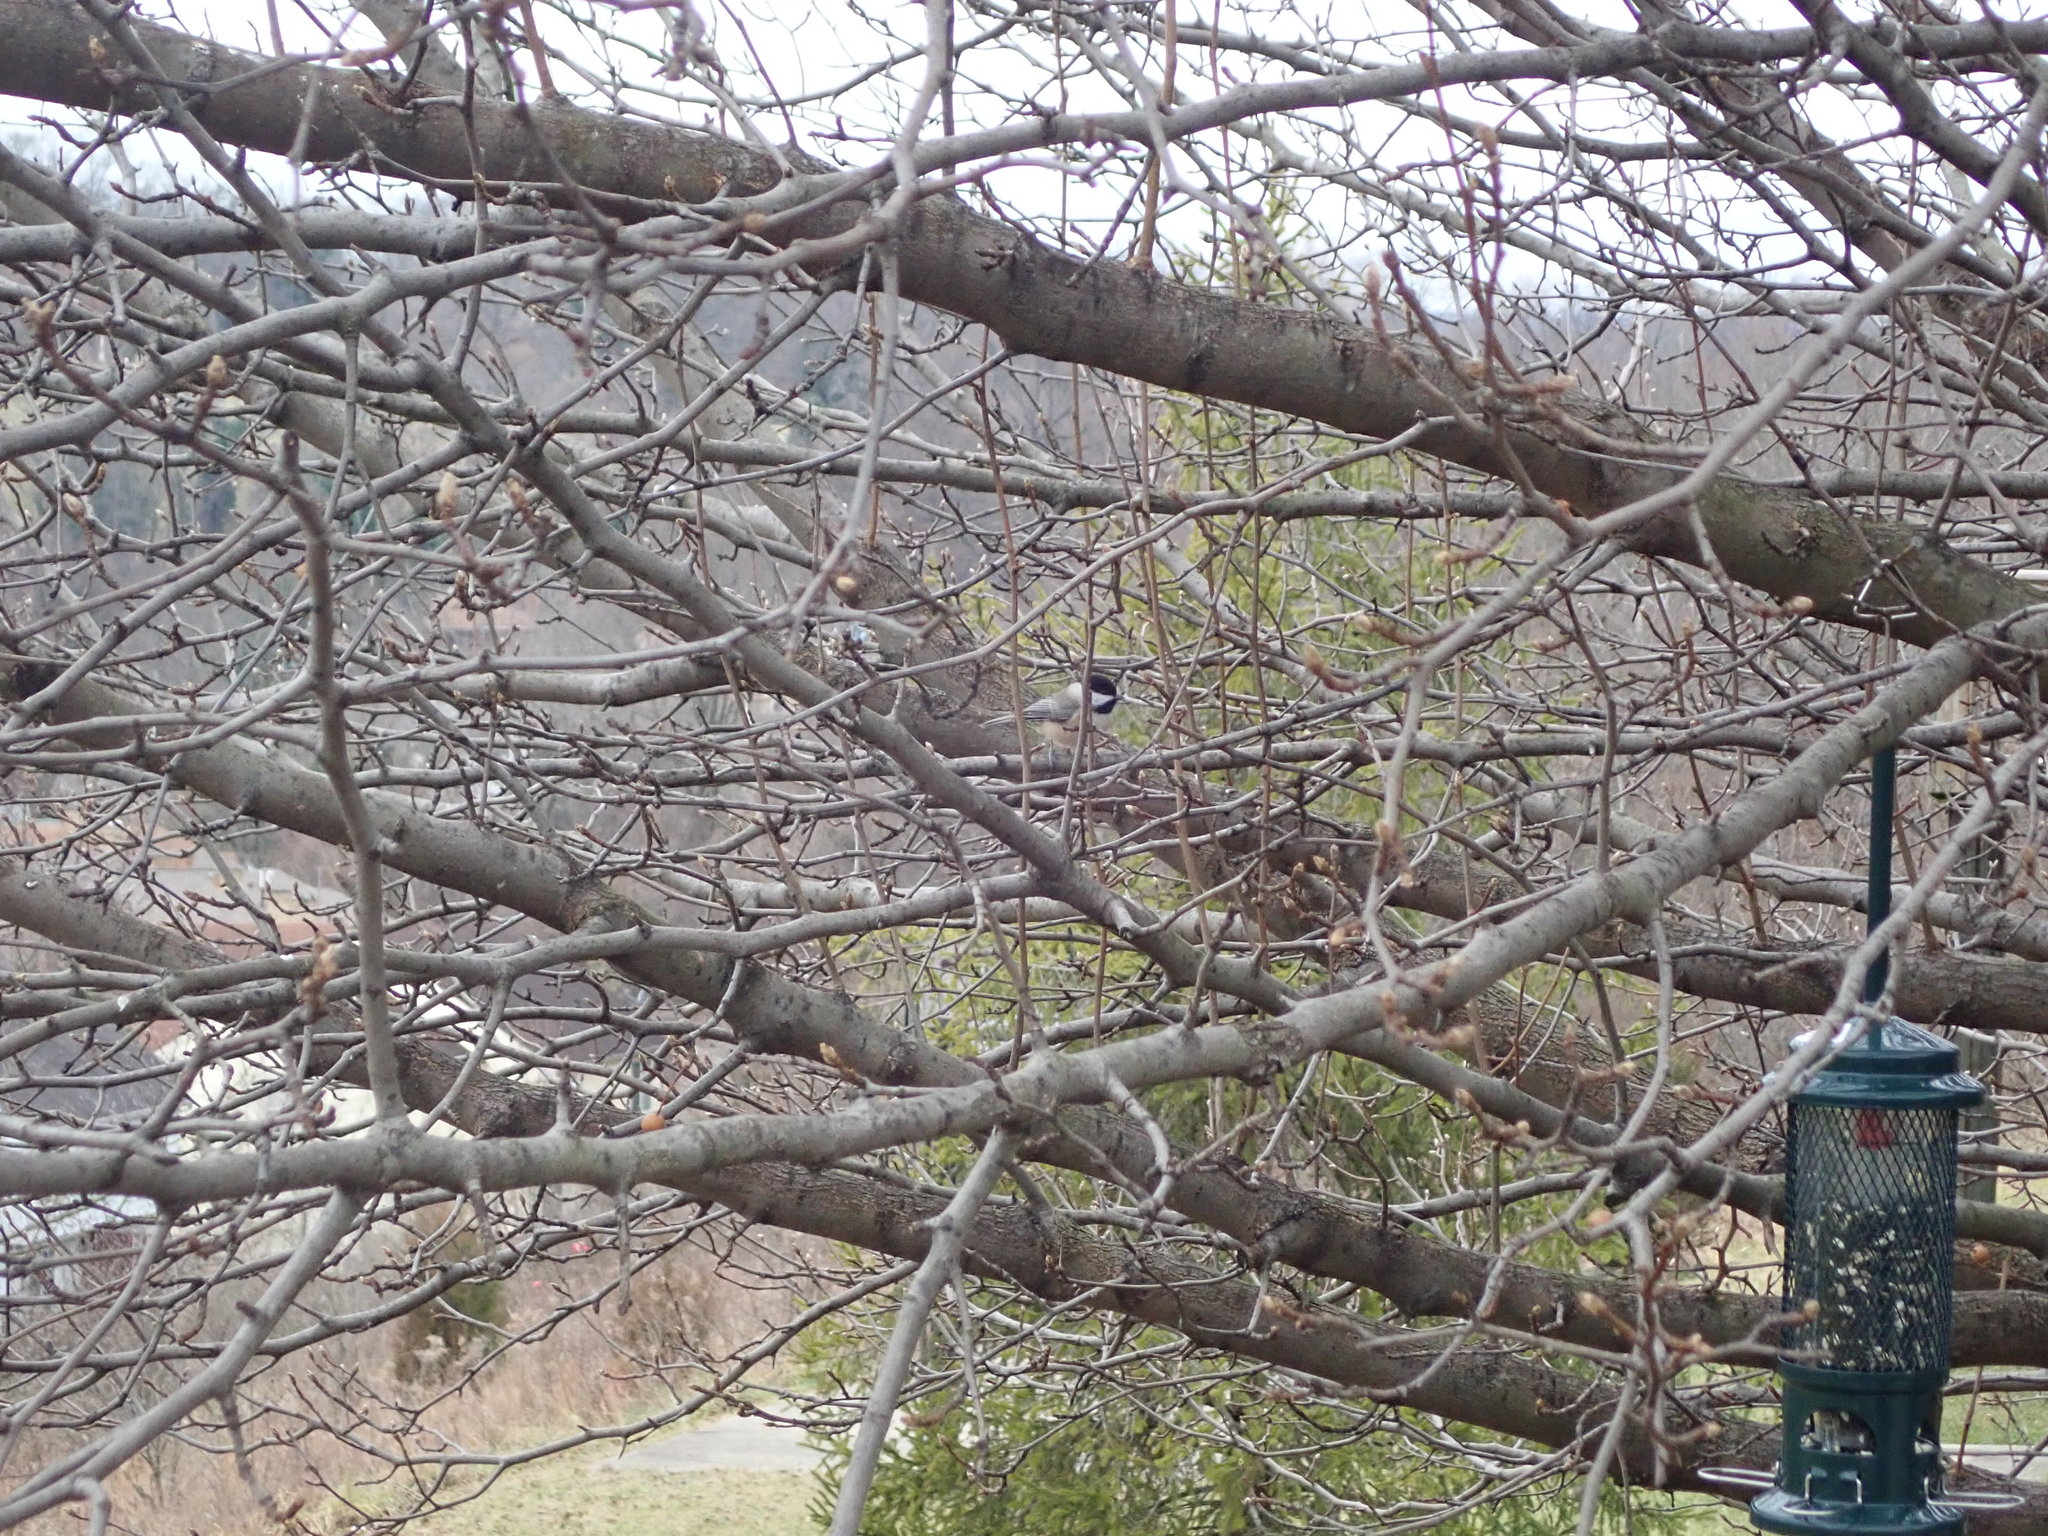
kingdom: Animalia
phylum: Chordata
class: Aves
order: Passeriformes
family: Paridae
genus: Poecile
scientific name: Poecile carolinensis
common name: Carolina chickadee
